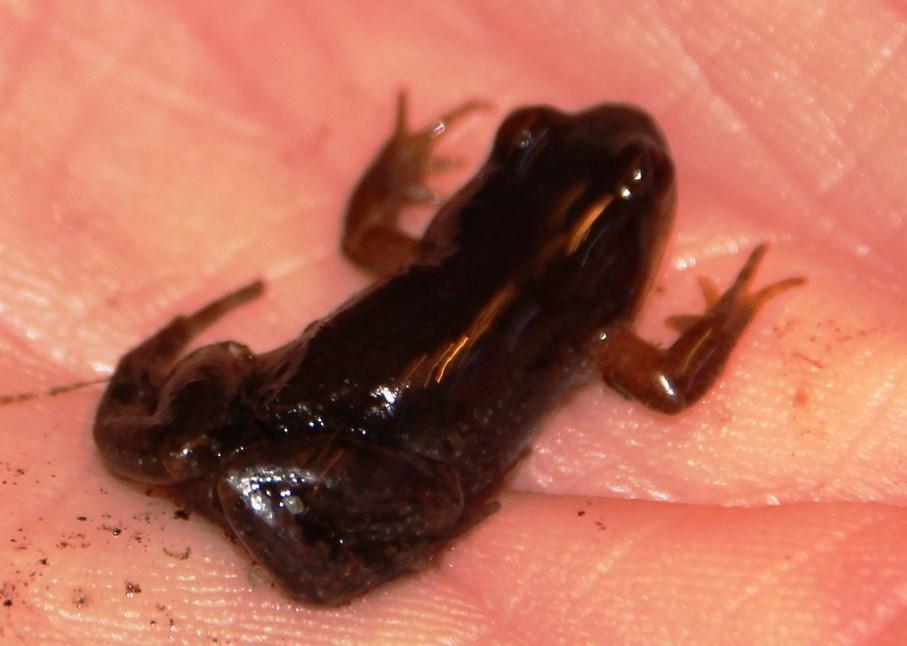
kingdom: Animalia
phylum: Chordata
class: Amphibia
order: Anura
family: Pyxicephalidae
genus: Cacosternum
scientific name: Cacosternum platys
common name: Smooth dainty frog
